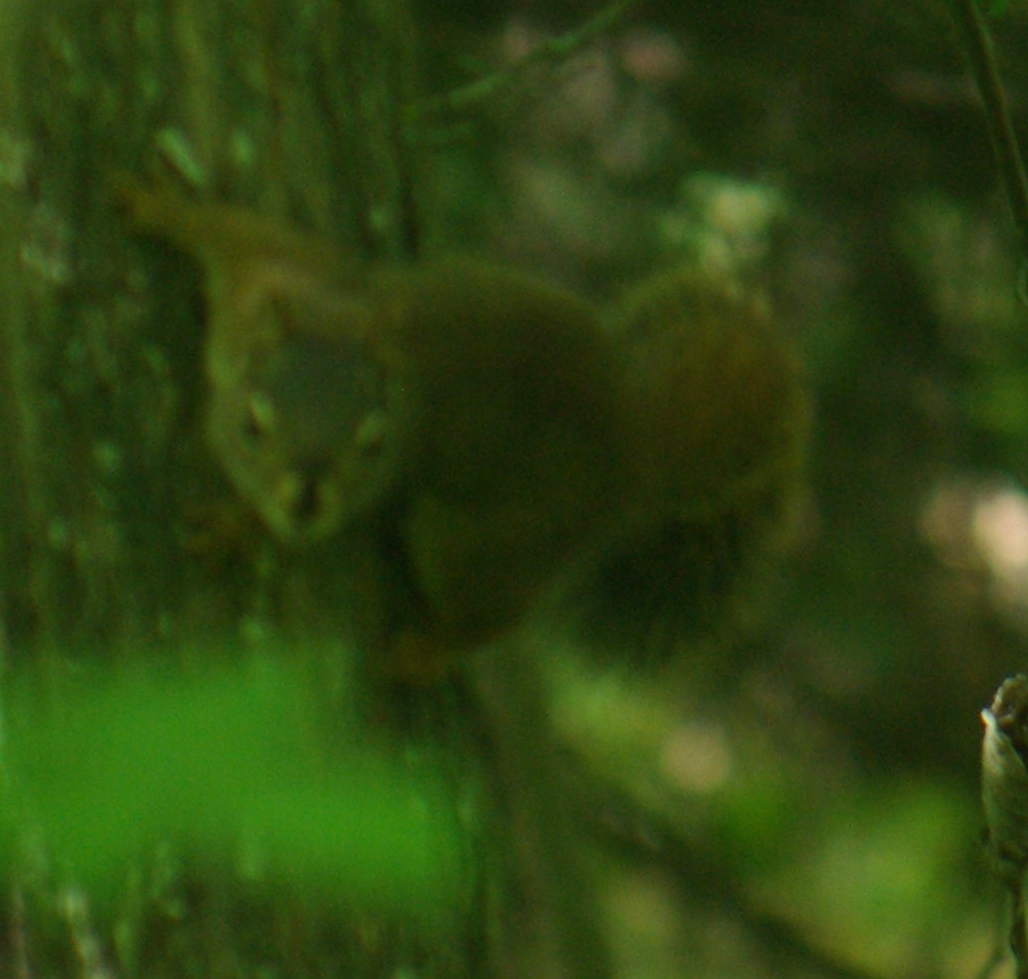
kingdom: Animalia
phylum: Chordata
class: Mammalia
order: Rodentia
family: Sciuridae
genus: Tamiasciurus
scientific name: Tamiasciurus hudsonicus
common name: Red squirrel
